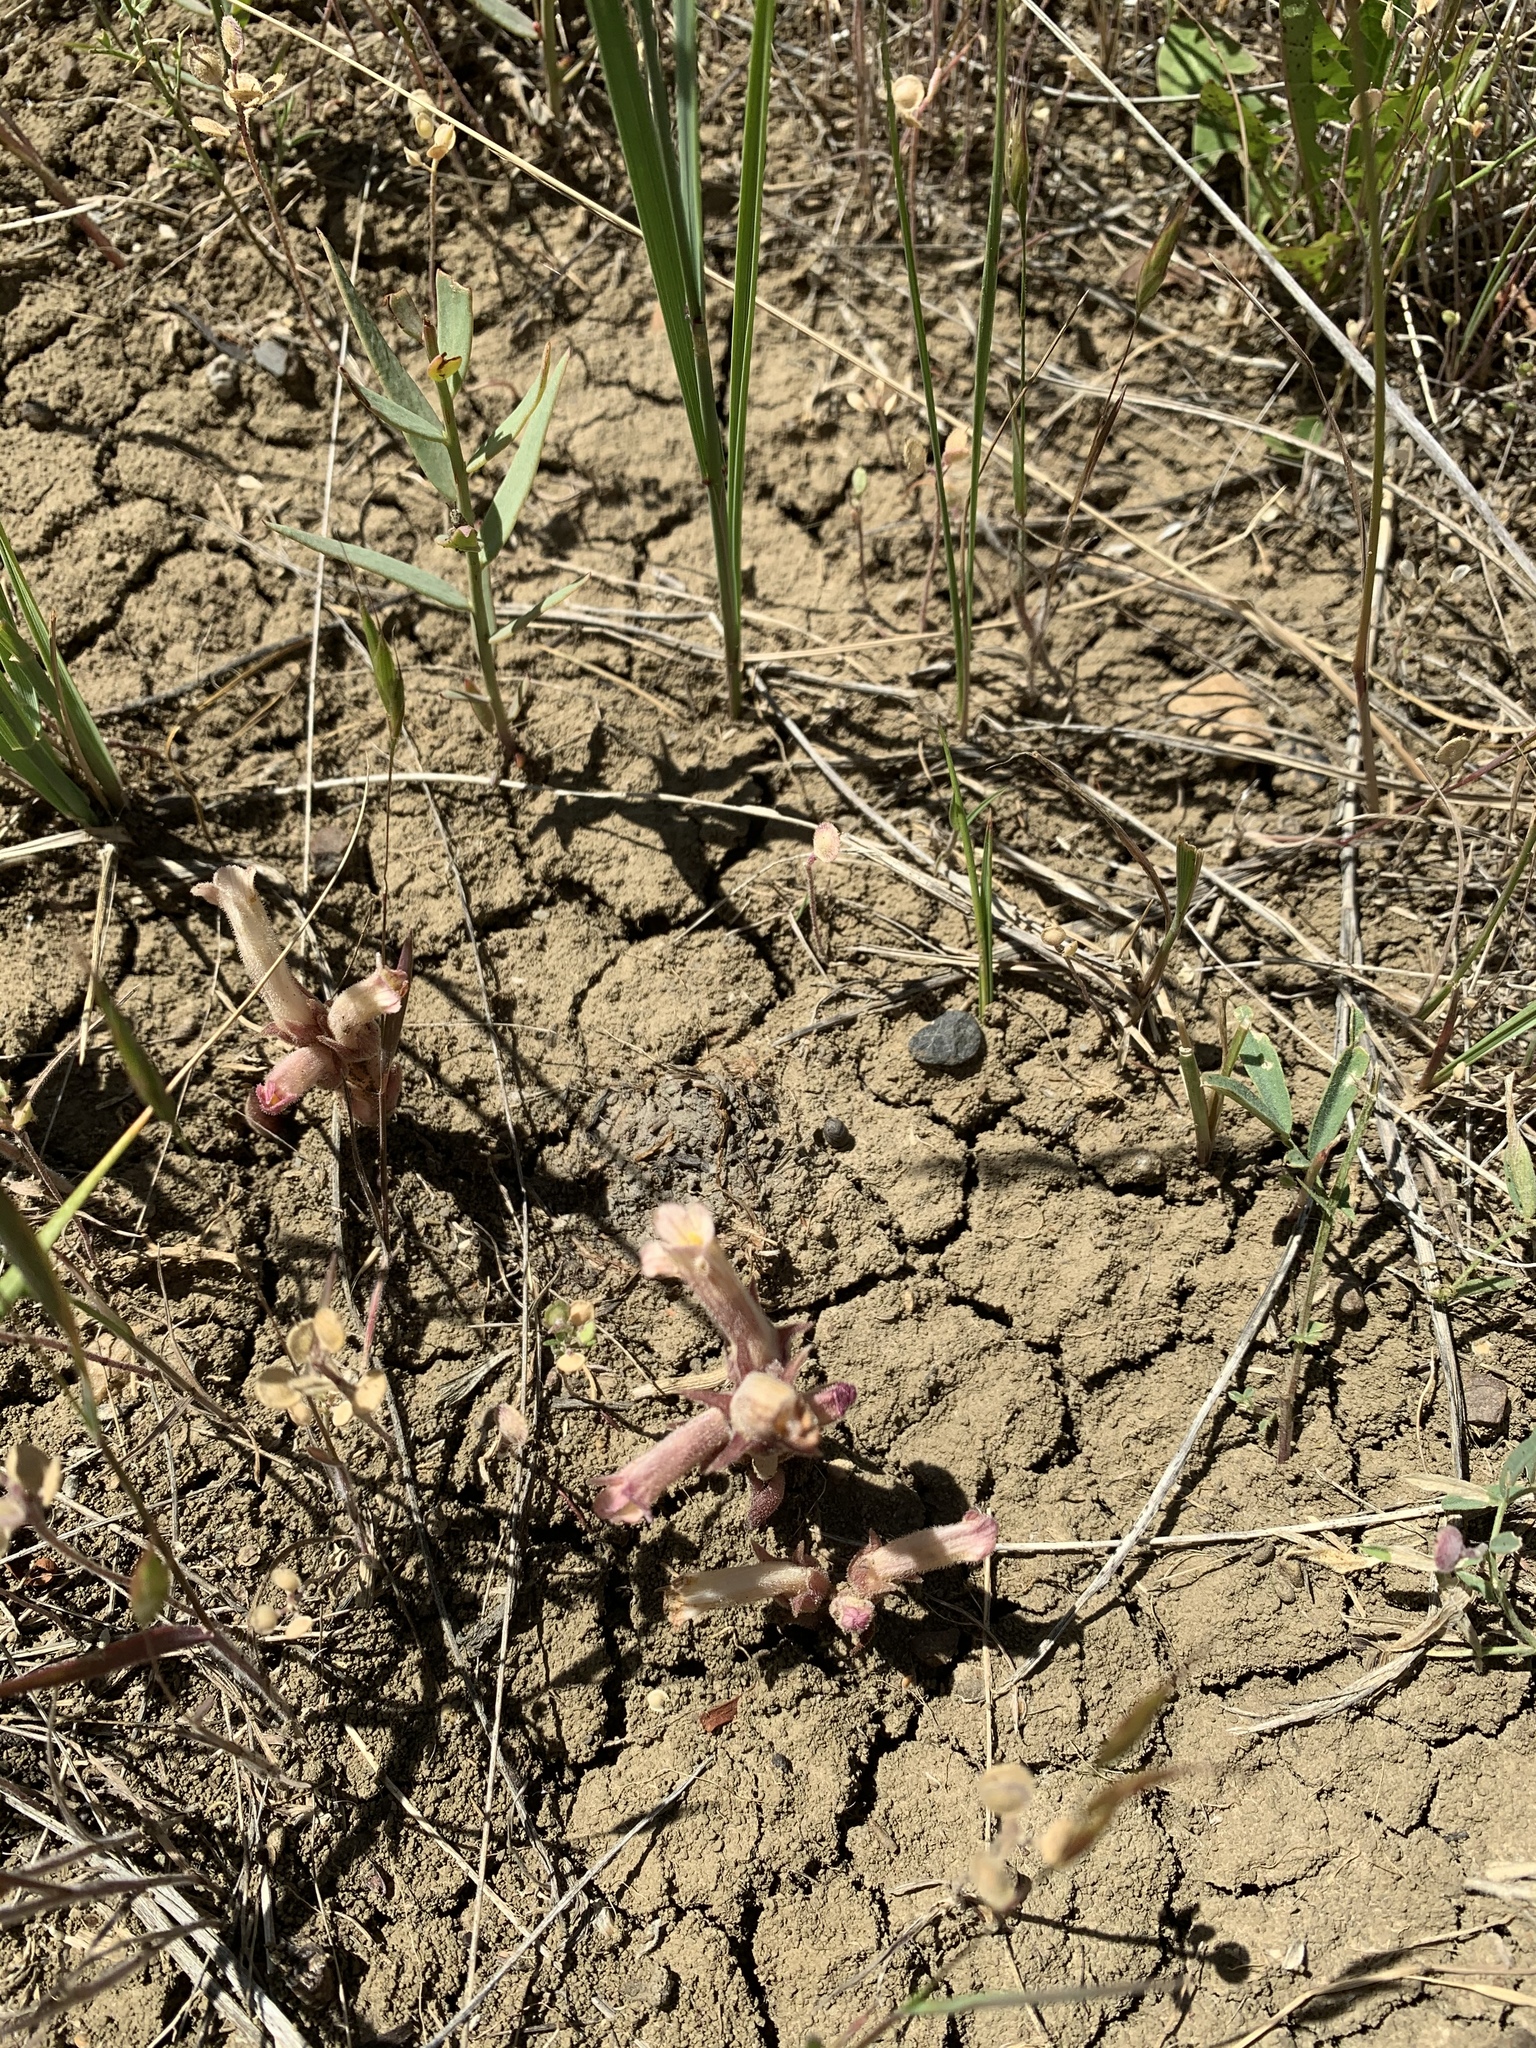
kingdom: Plantae
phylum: Tracheophyta
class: Magnoliopsida
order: Lamiales
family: Orobanchaceae
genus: Aphyllon
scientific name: Aphyllon fasciculatum
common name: Clustered broomrape
